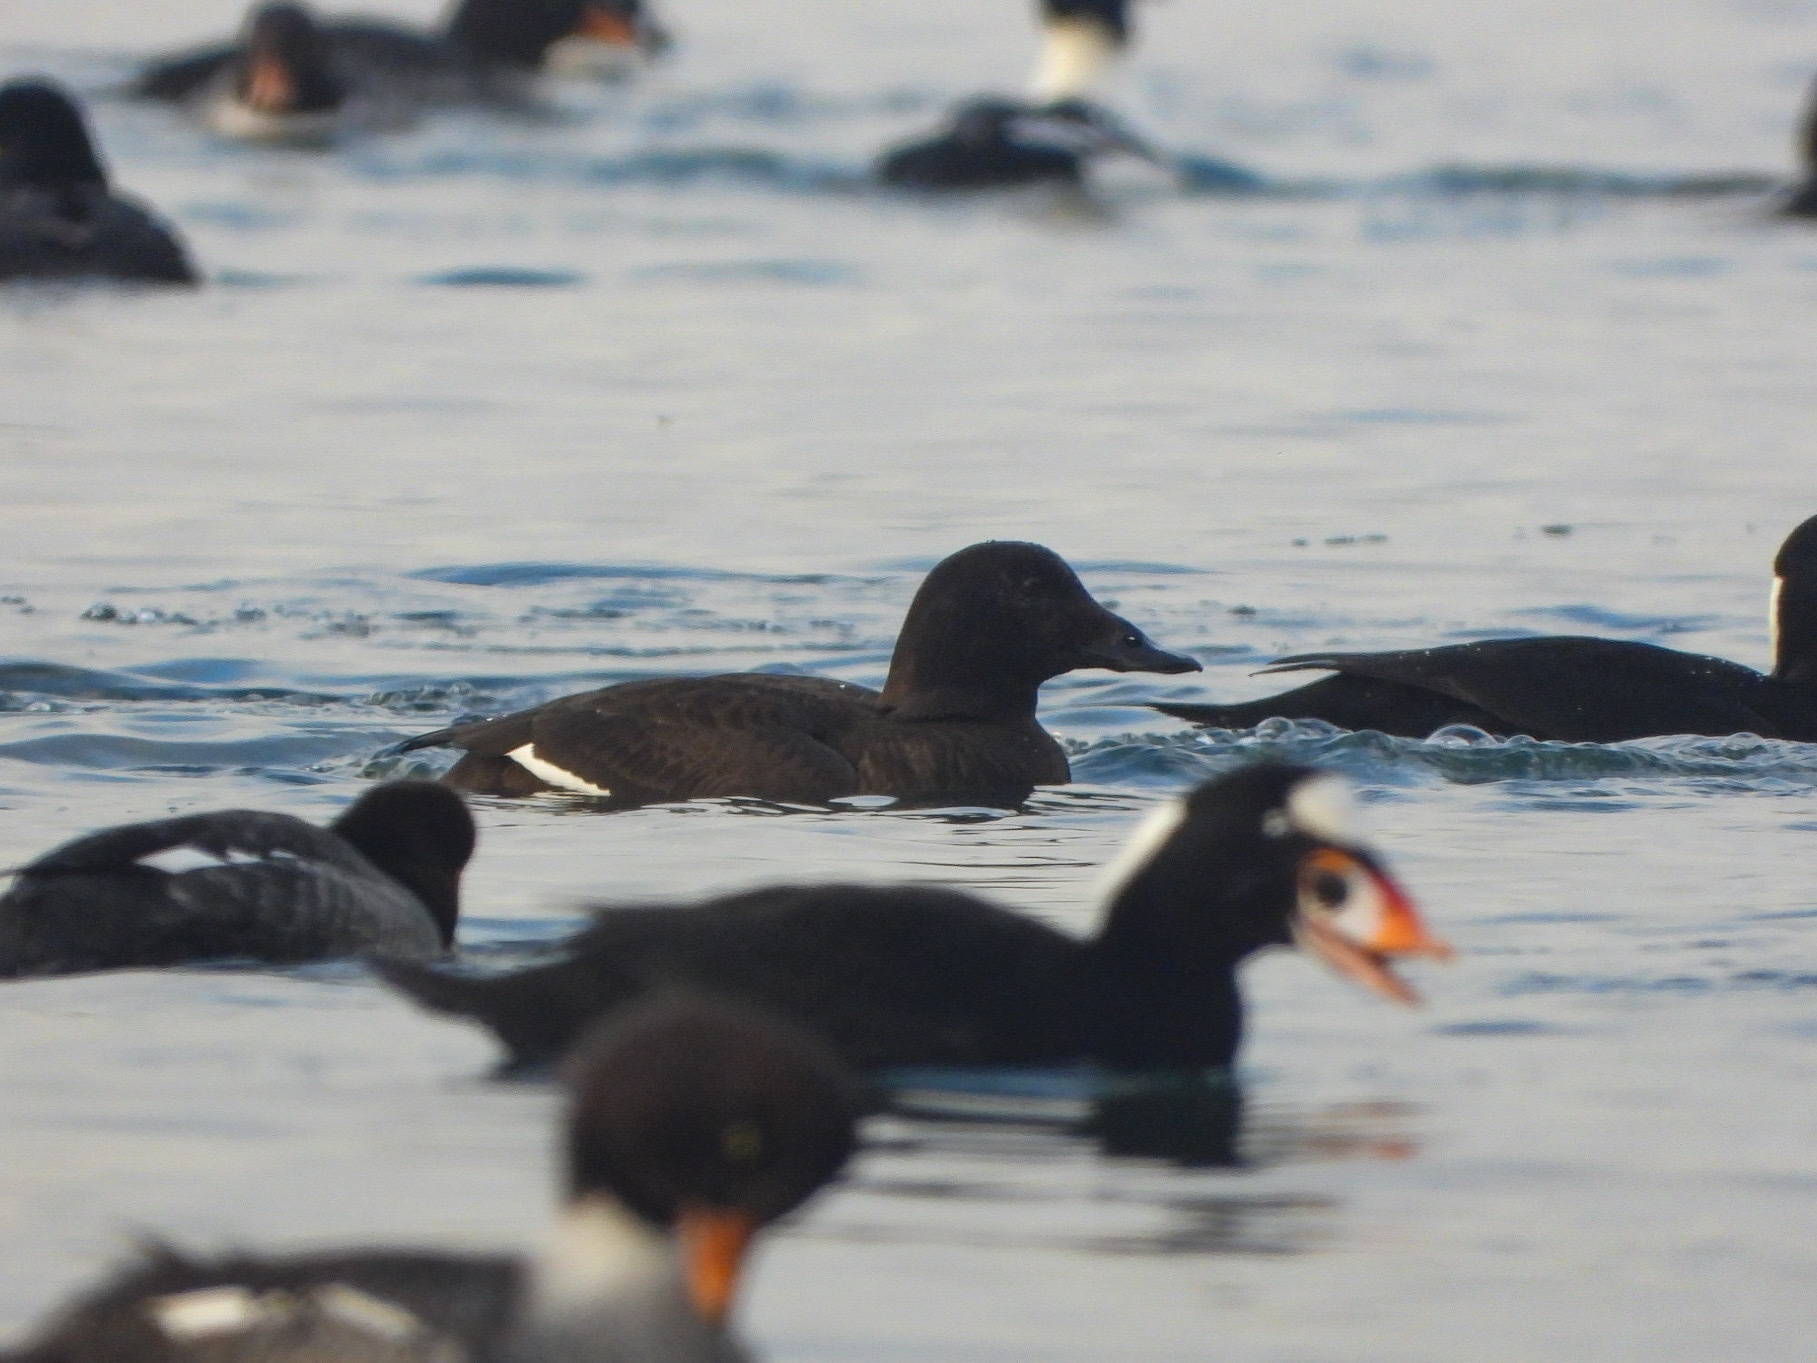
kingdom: Animalia
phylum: Chordata
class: Aves
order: Anseriformes
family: Anatidae
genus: Melanitta
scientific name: Melanitta deglandi
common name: White-winged scoter
